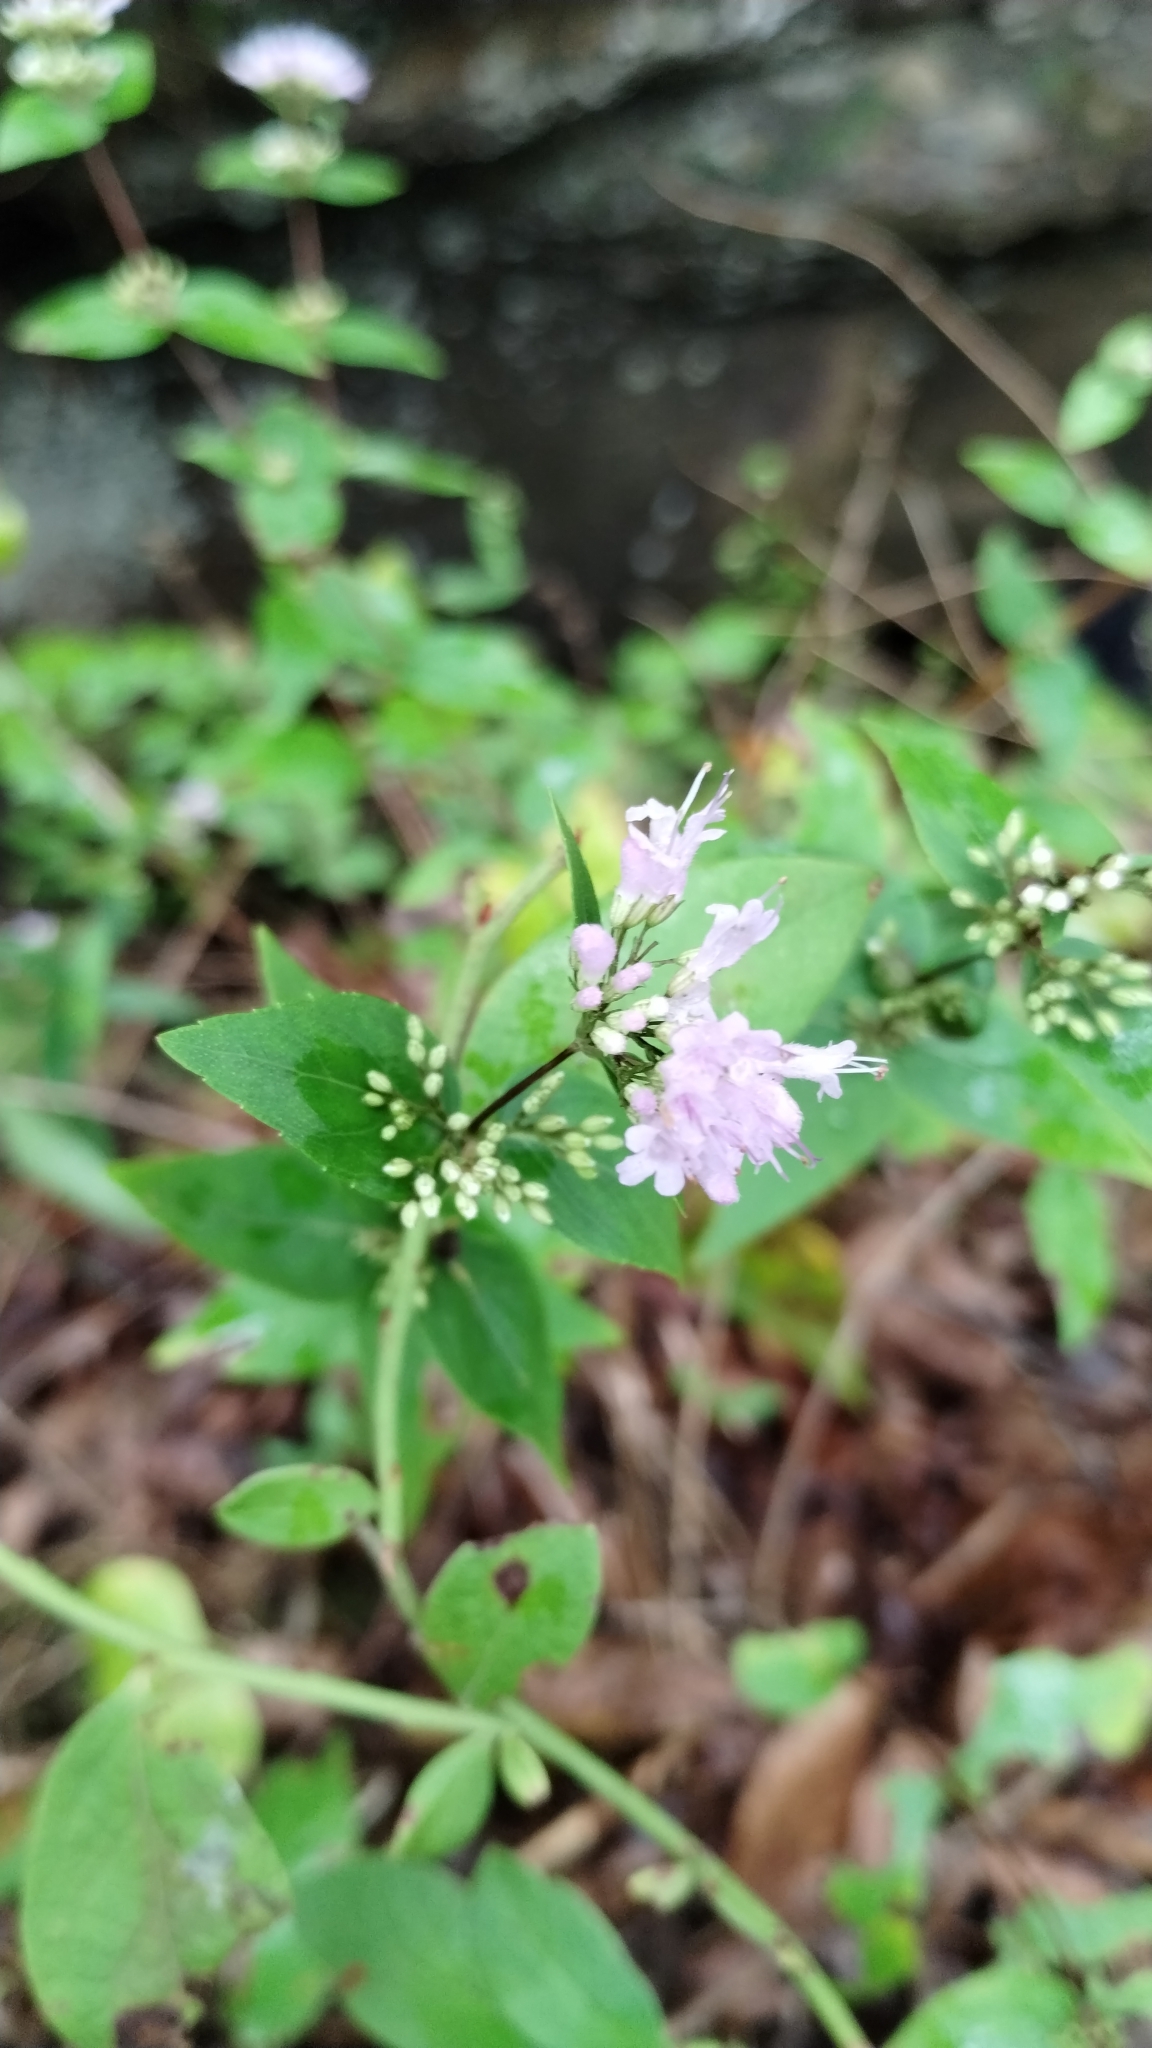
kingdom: Plantae
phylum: Tracheophyta
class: Magnoliopsida
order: Lamiales
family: Lamiaceae
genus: Cunila
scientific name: Cunila origanoides
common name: American dittany
